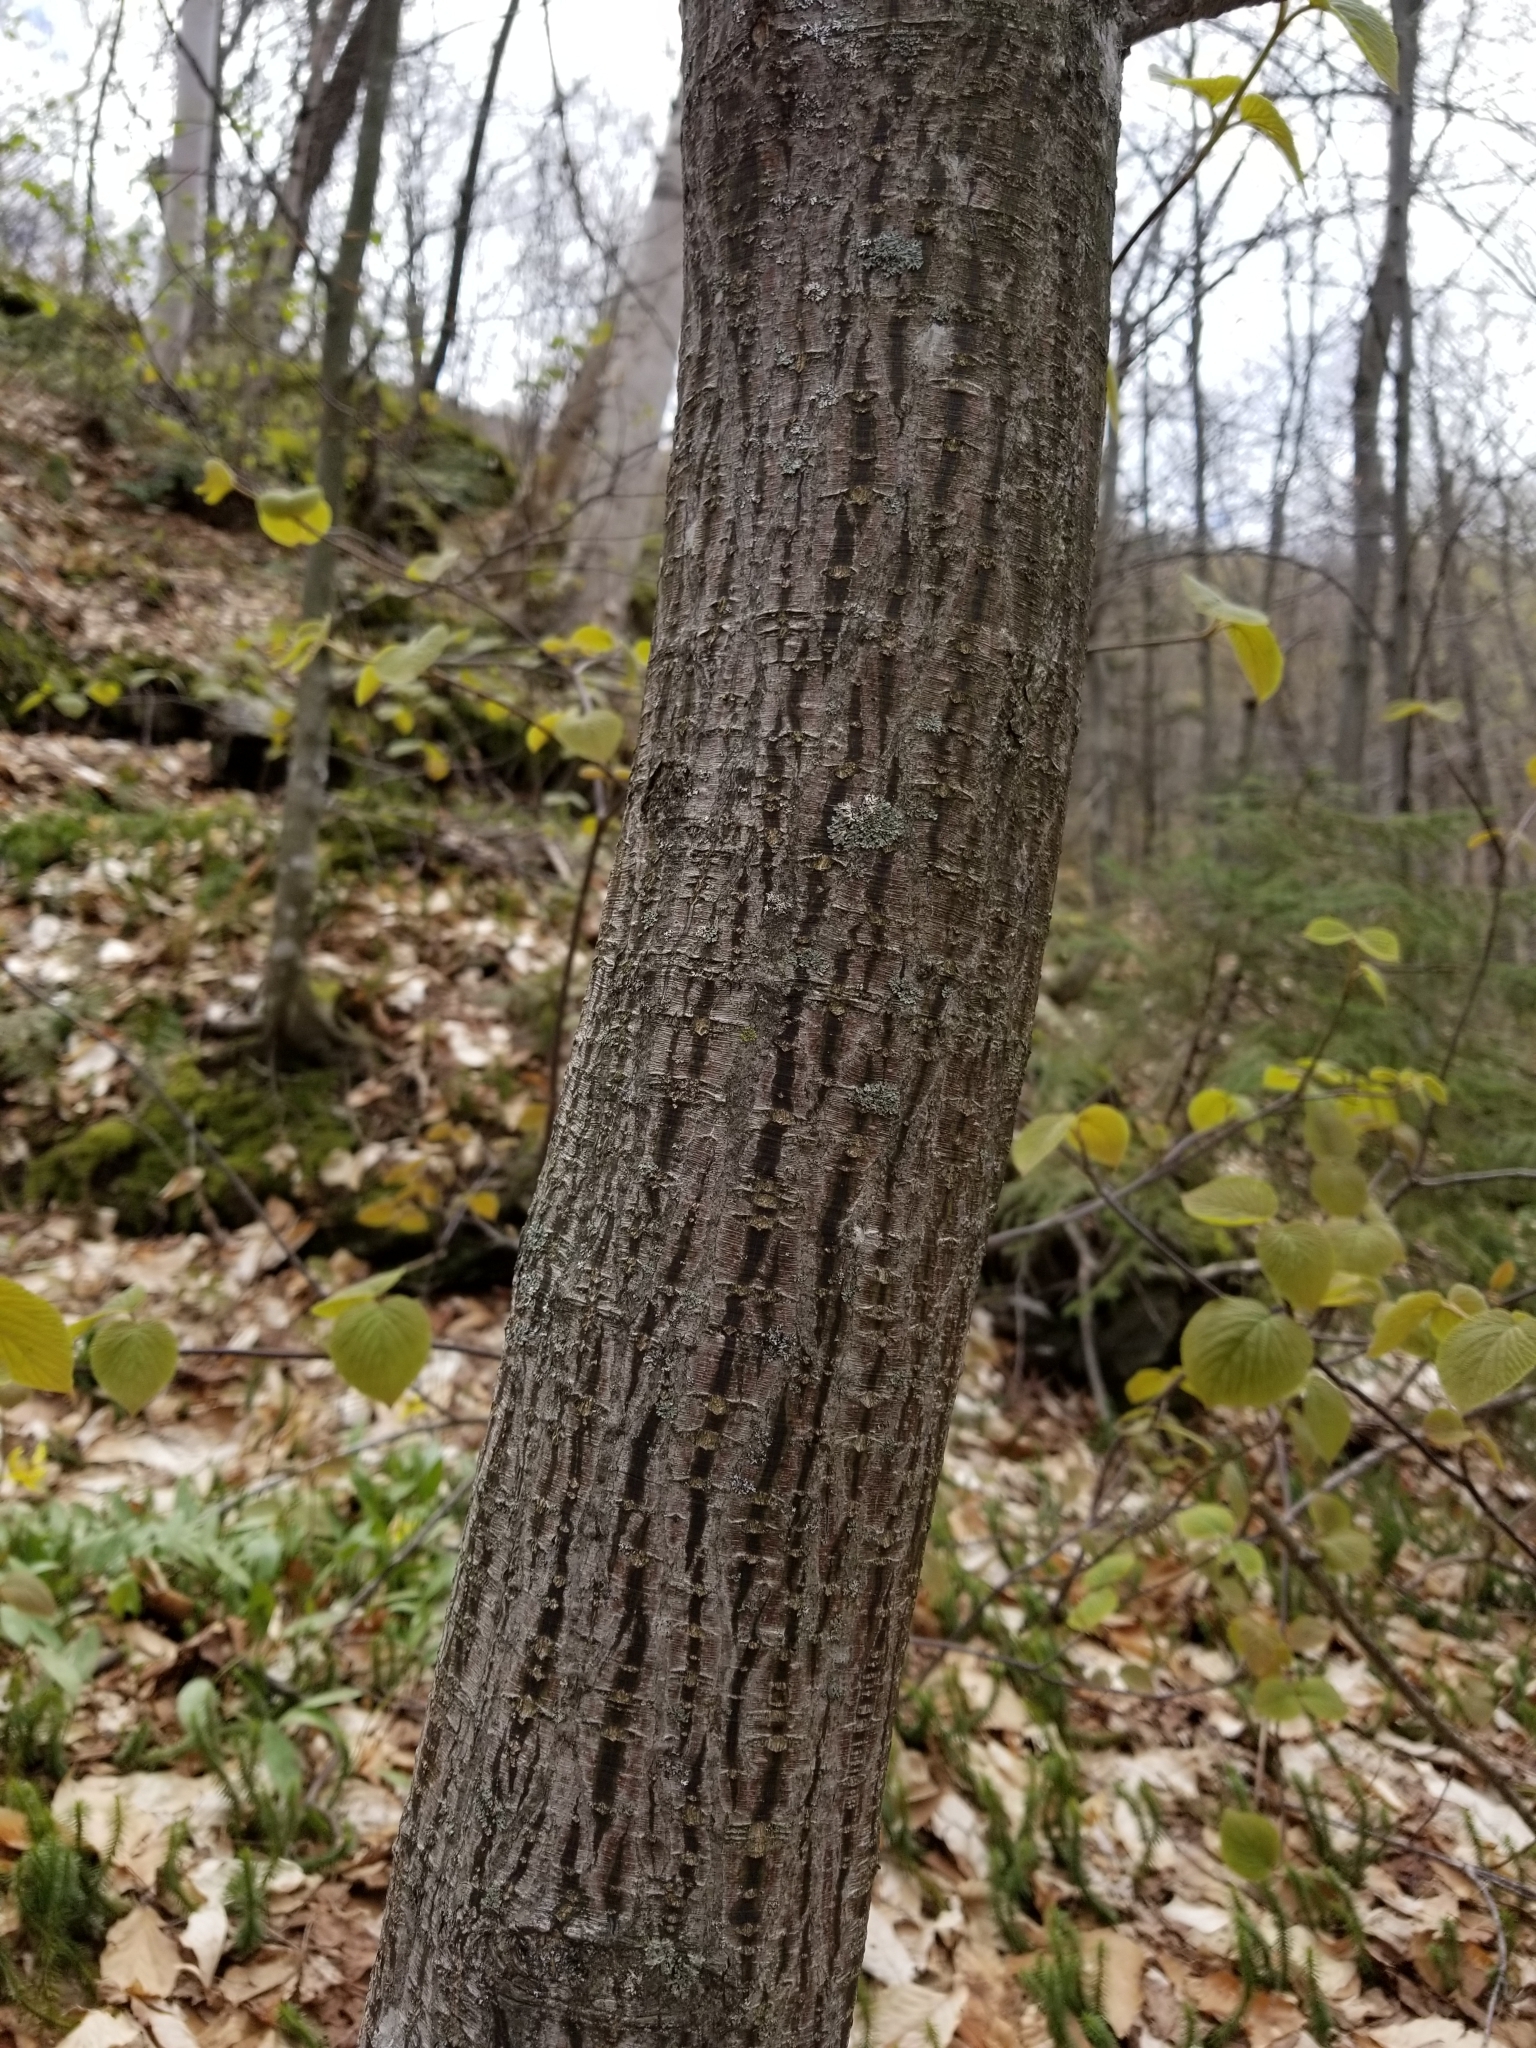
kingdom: Plantae
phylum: Tracheophyta
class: Magnoliopsida
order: Sapindales
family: Sapindaceae
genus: Acer
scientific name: Acer pensylvanicum
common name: Moosewood
